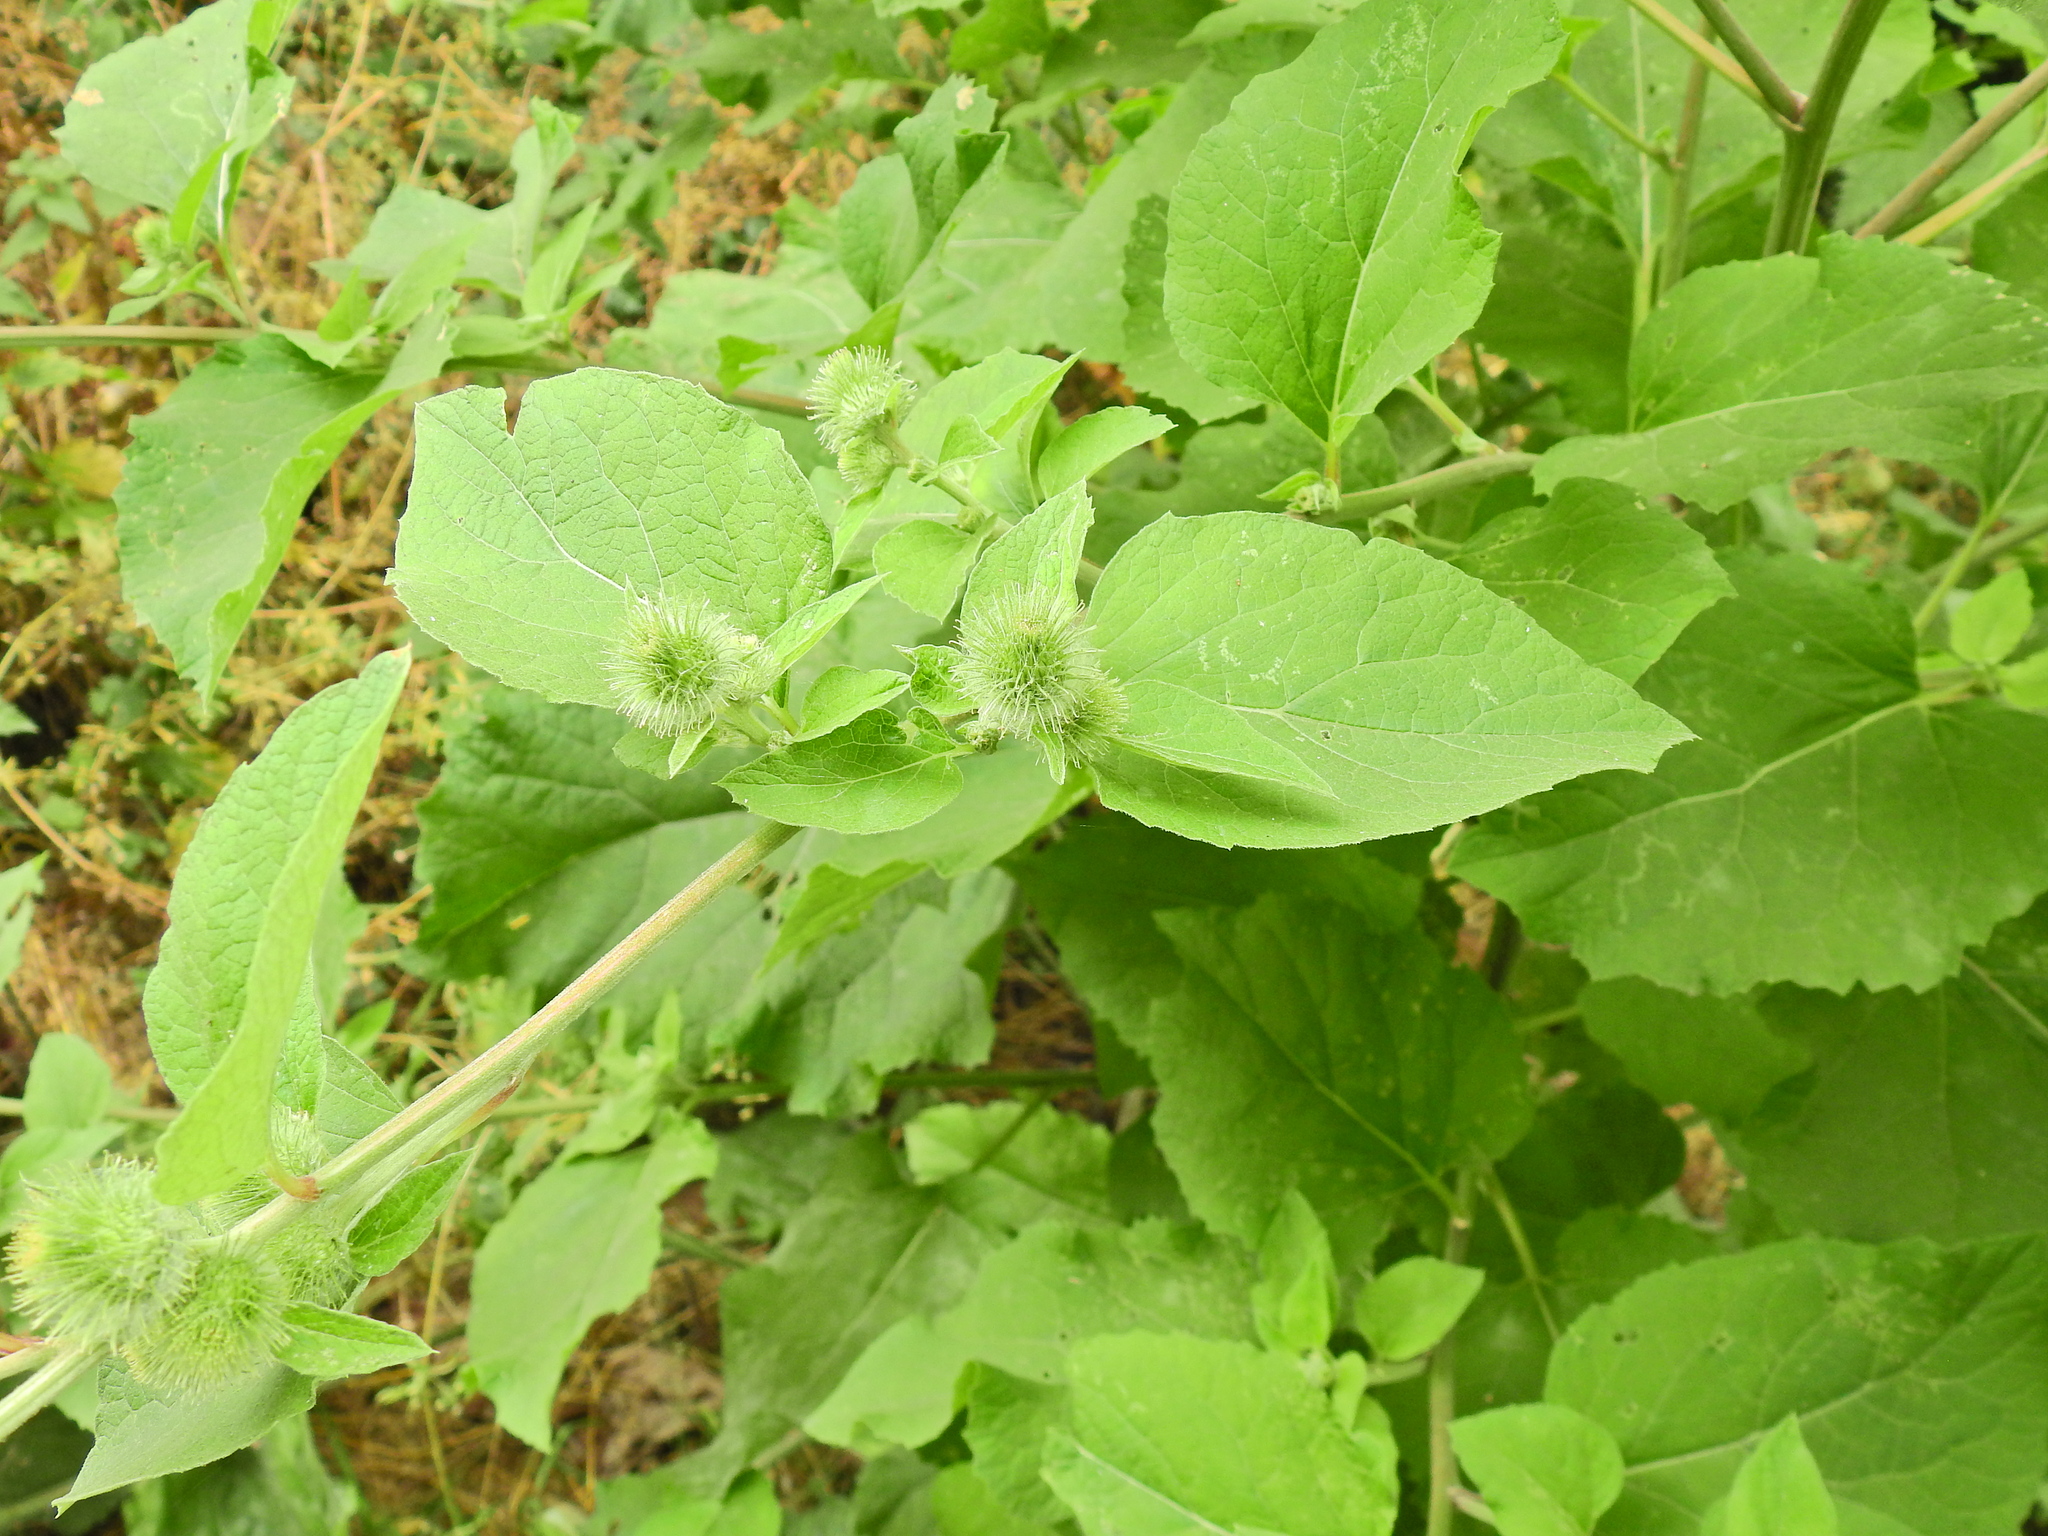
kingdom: Plantae
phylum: Tracheophyta
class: Magnoliopsida
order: Asterales
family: Asteraceae
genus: Arctium
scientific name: Arctium minus
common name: Lesser burdock
